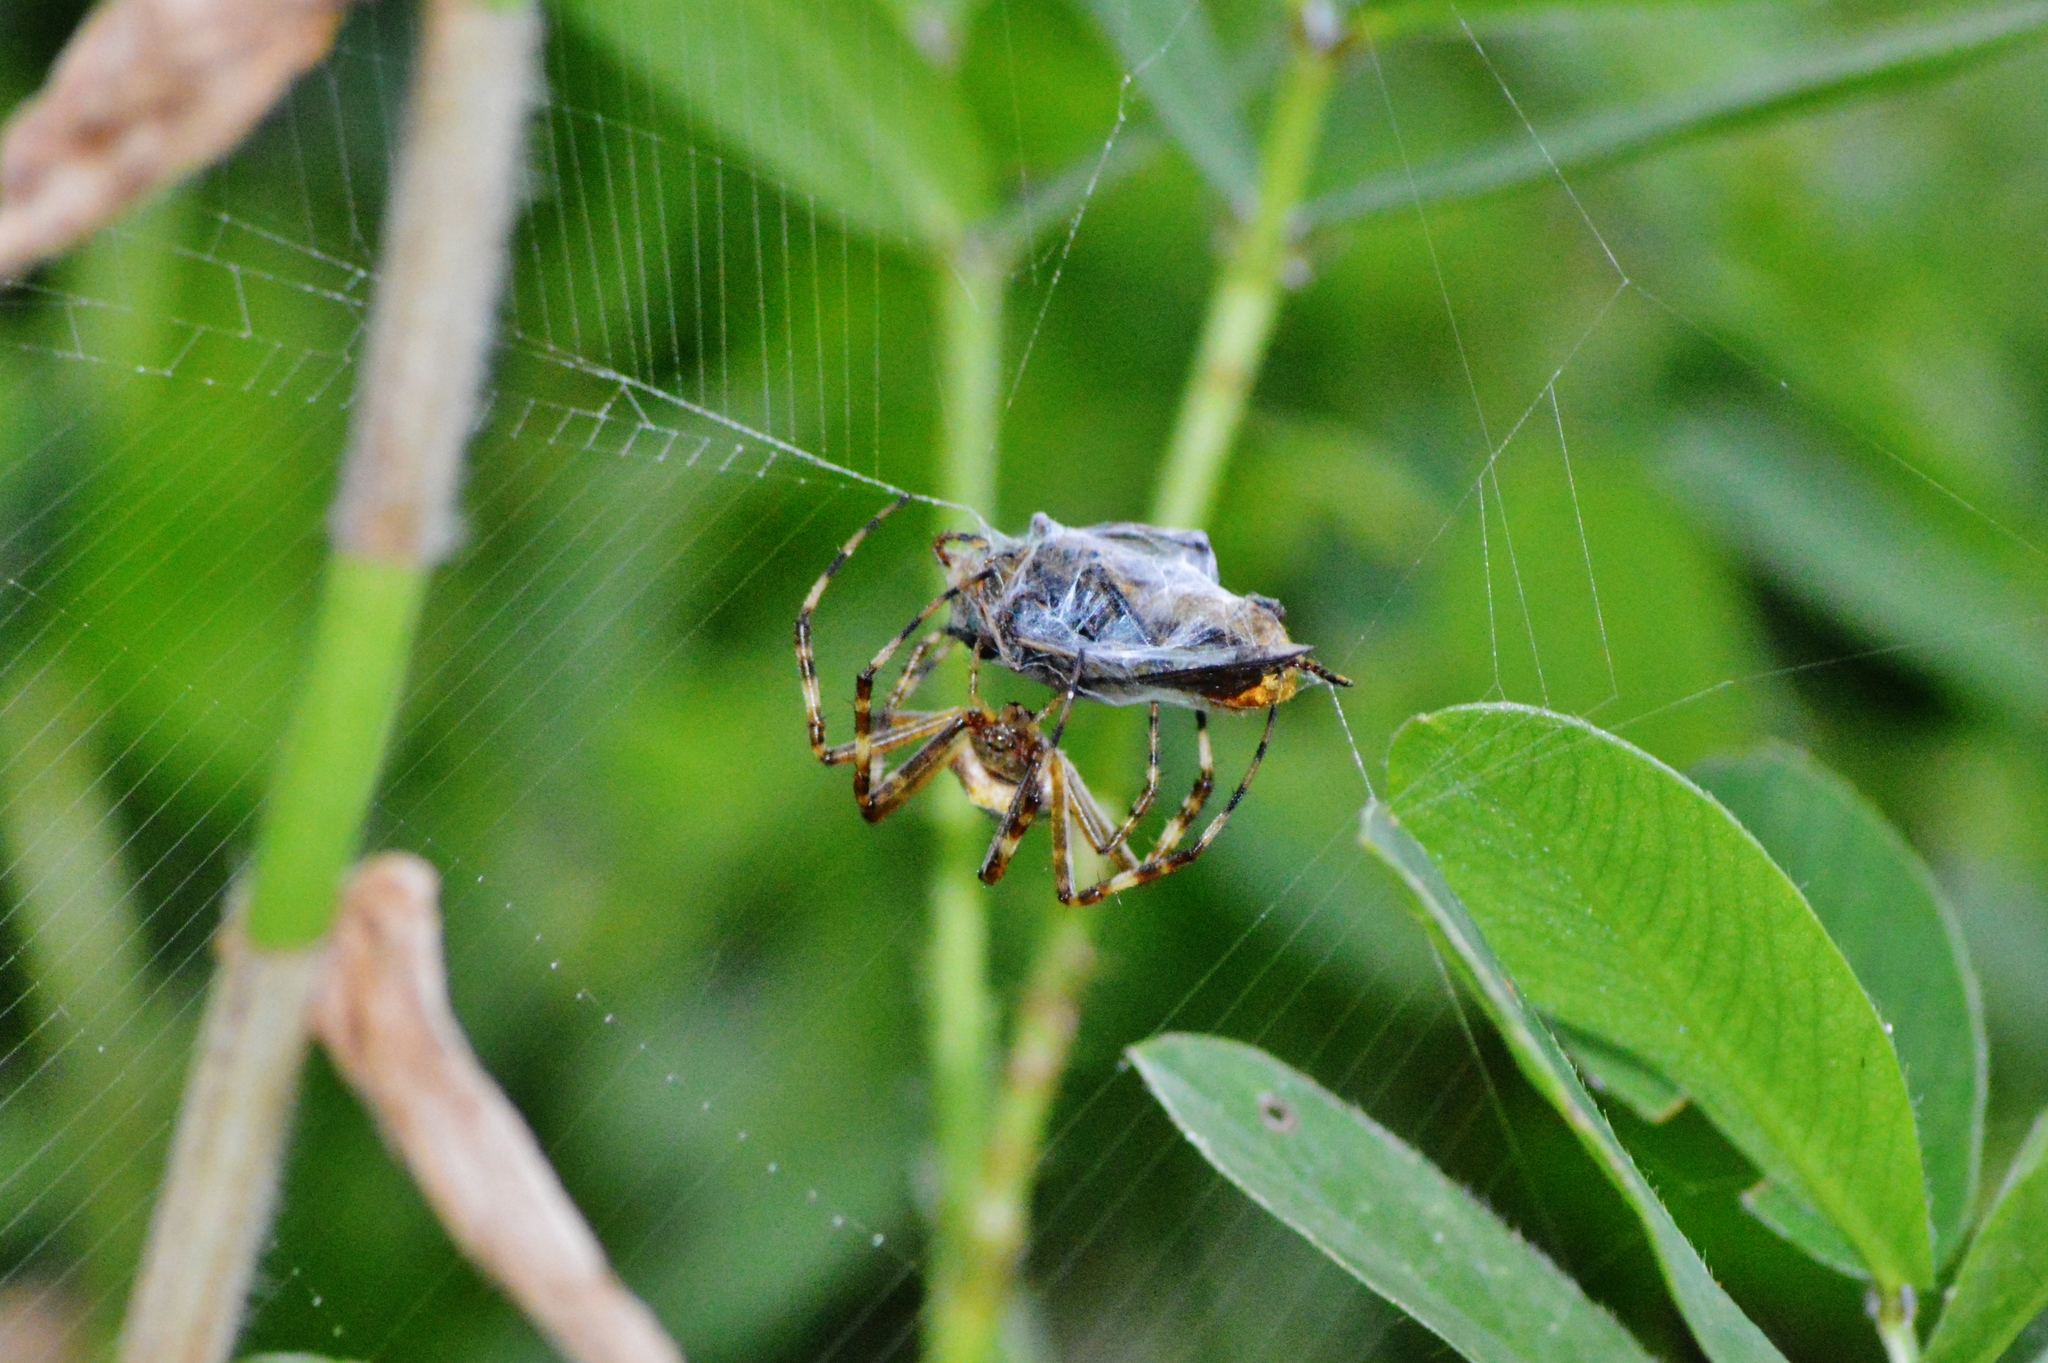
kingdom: Animalia
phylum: Arthropoda
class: Arachnida
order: Araneae
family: Araneidae
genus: Argiope
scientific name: Argiope argentata
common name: Orb weavers
